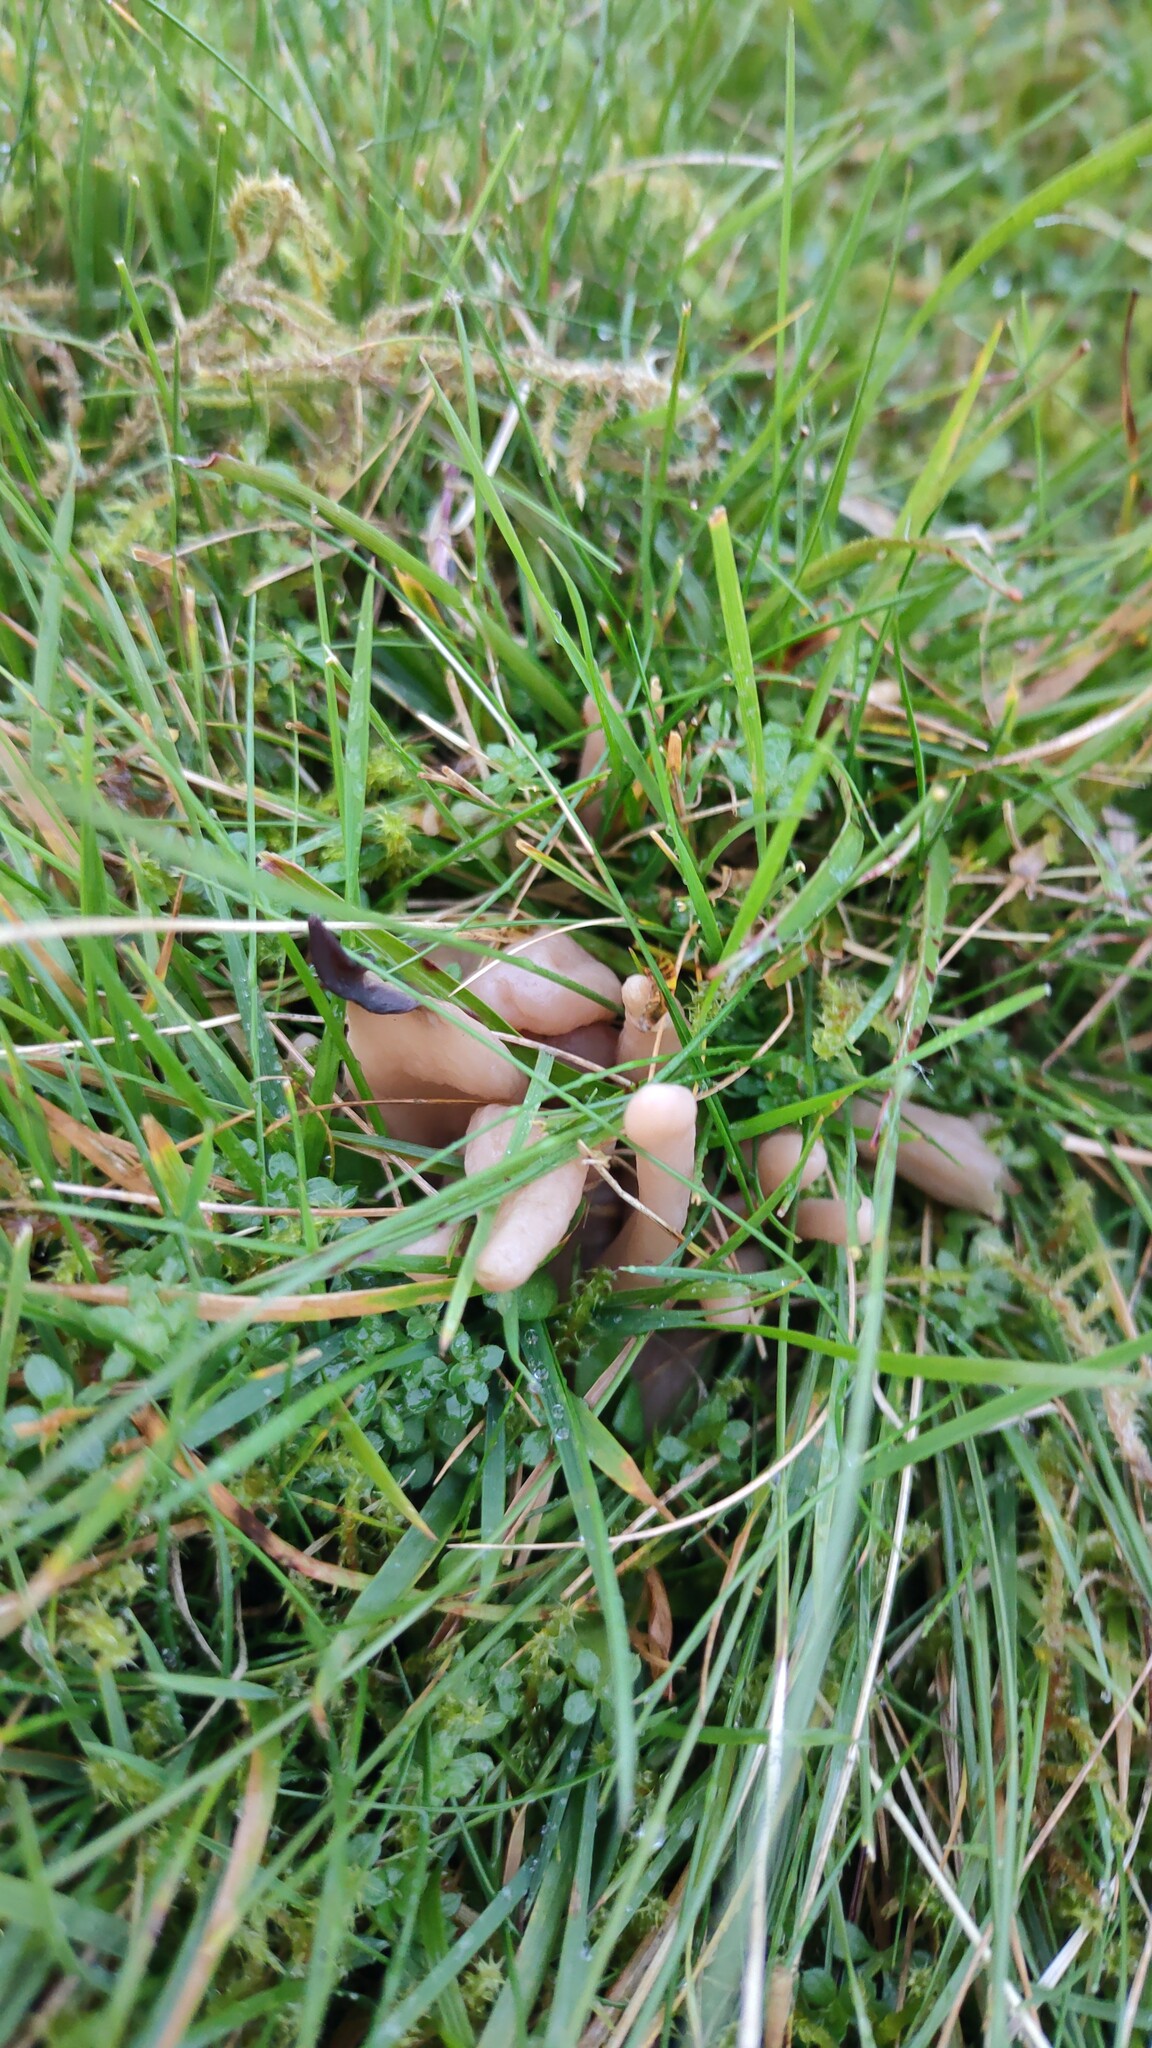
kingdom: Fungi
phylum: Basidiomycota
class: Agaricomycetes
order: Agaricales
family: Clavariaceae
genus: Clavaria
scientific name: Clavaria fumosa
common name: Smoky spindles
